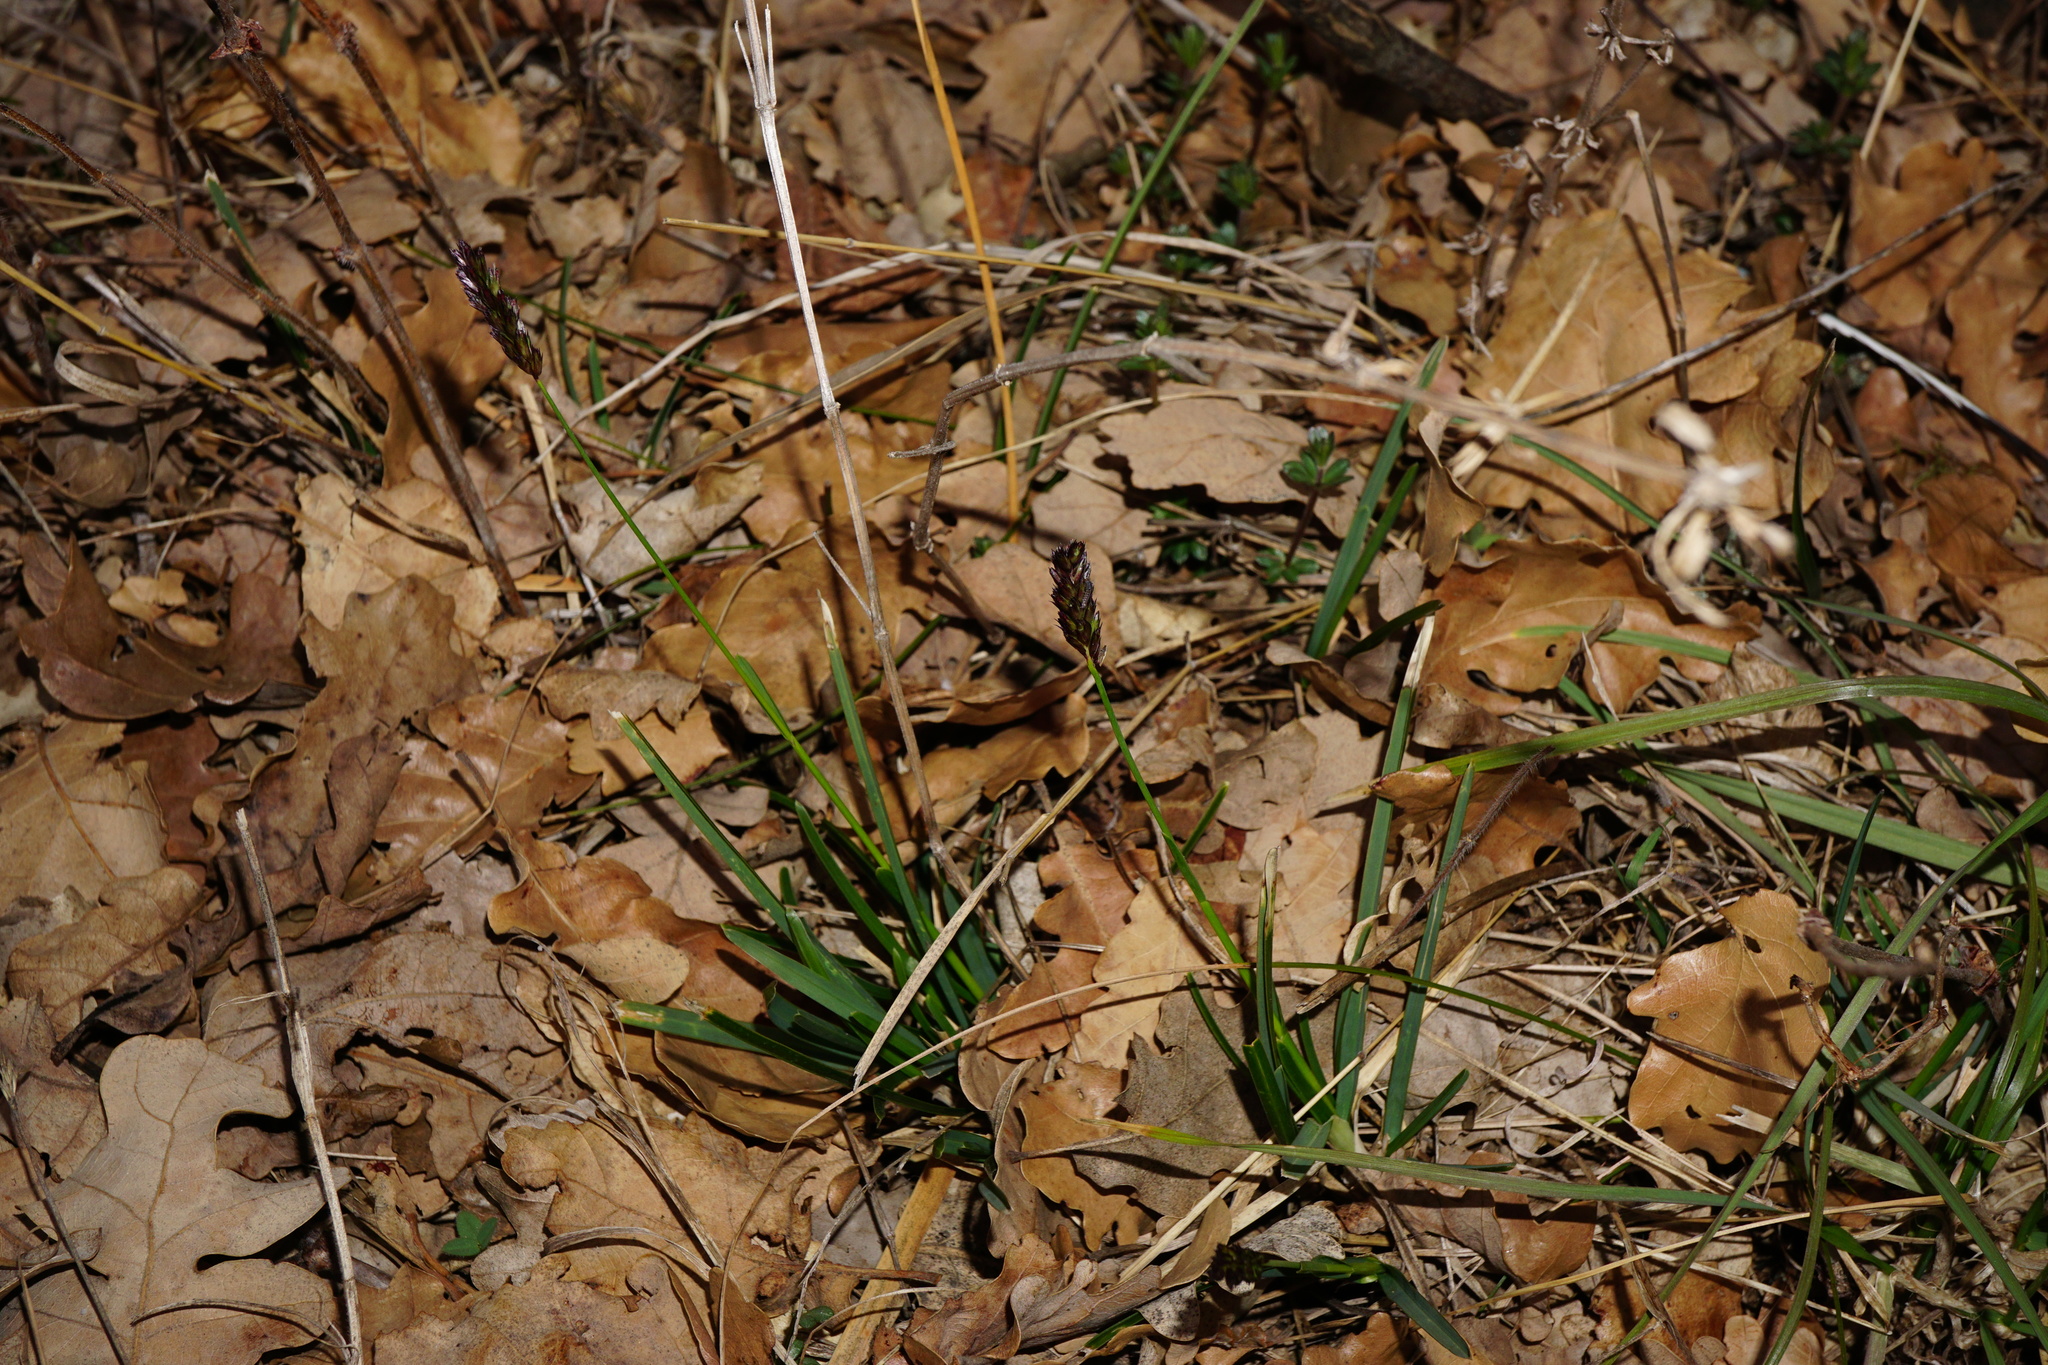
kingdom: Plantae
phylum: Tracheophyta
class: Liliopsida
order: Poales
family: Poaceae
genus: Sesleria
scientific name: Sesleria caerulea
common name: Blue moor-grass
